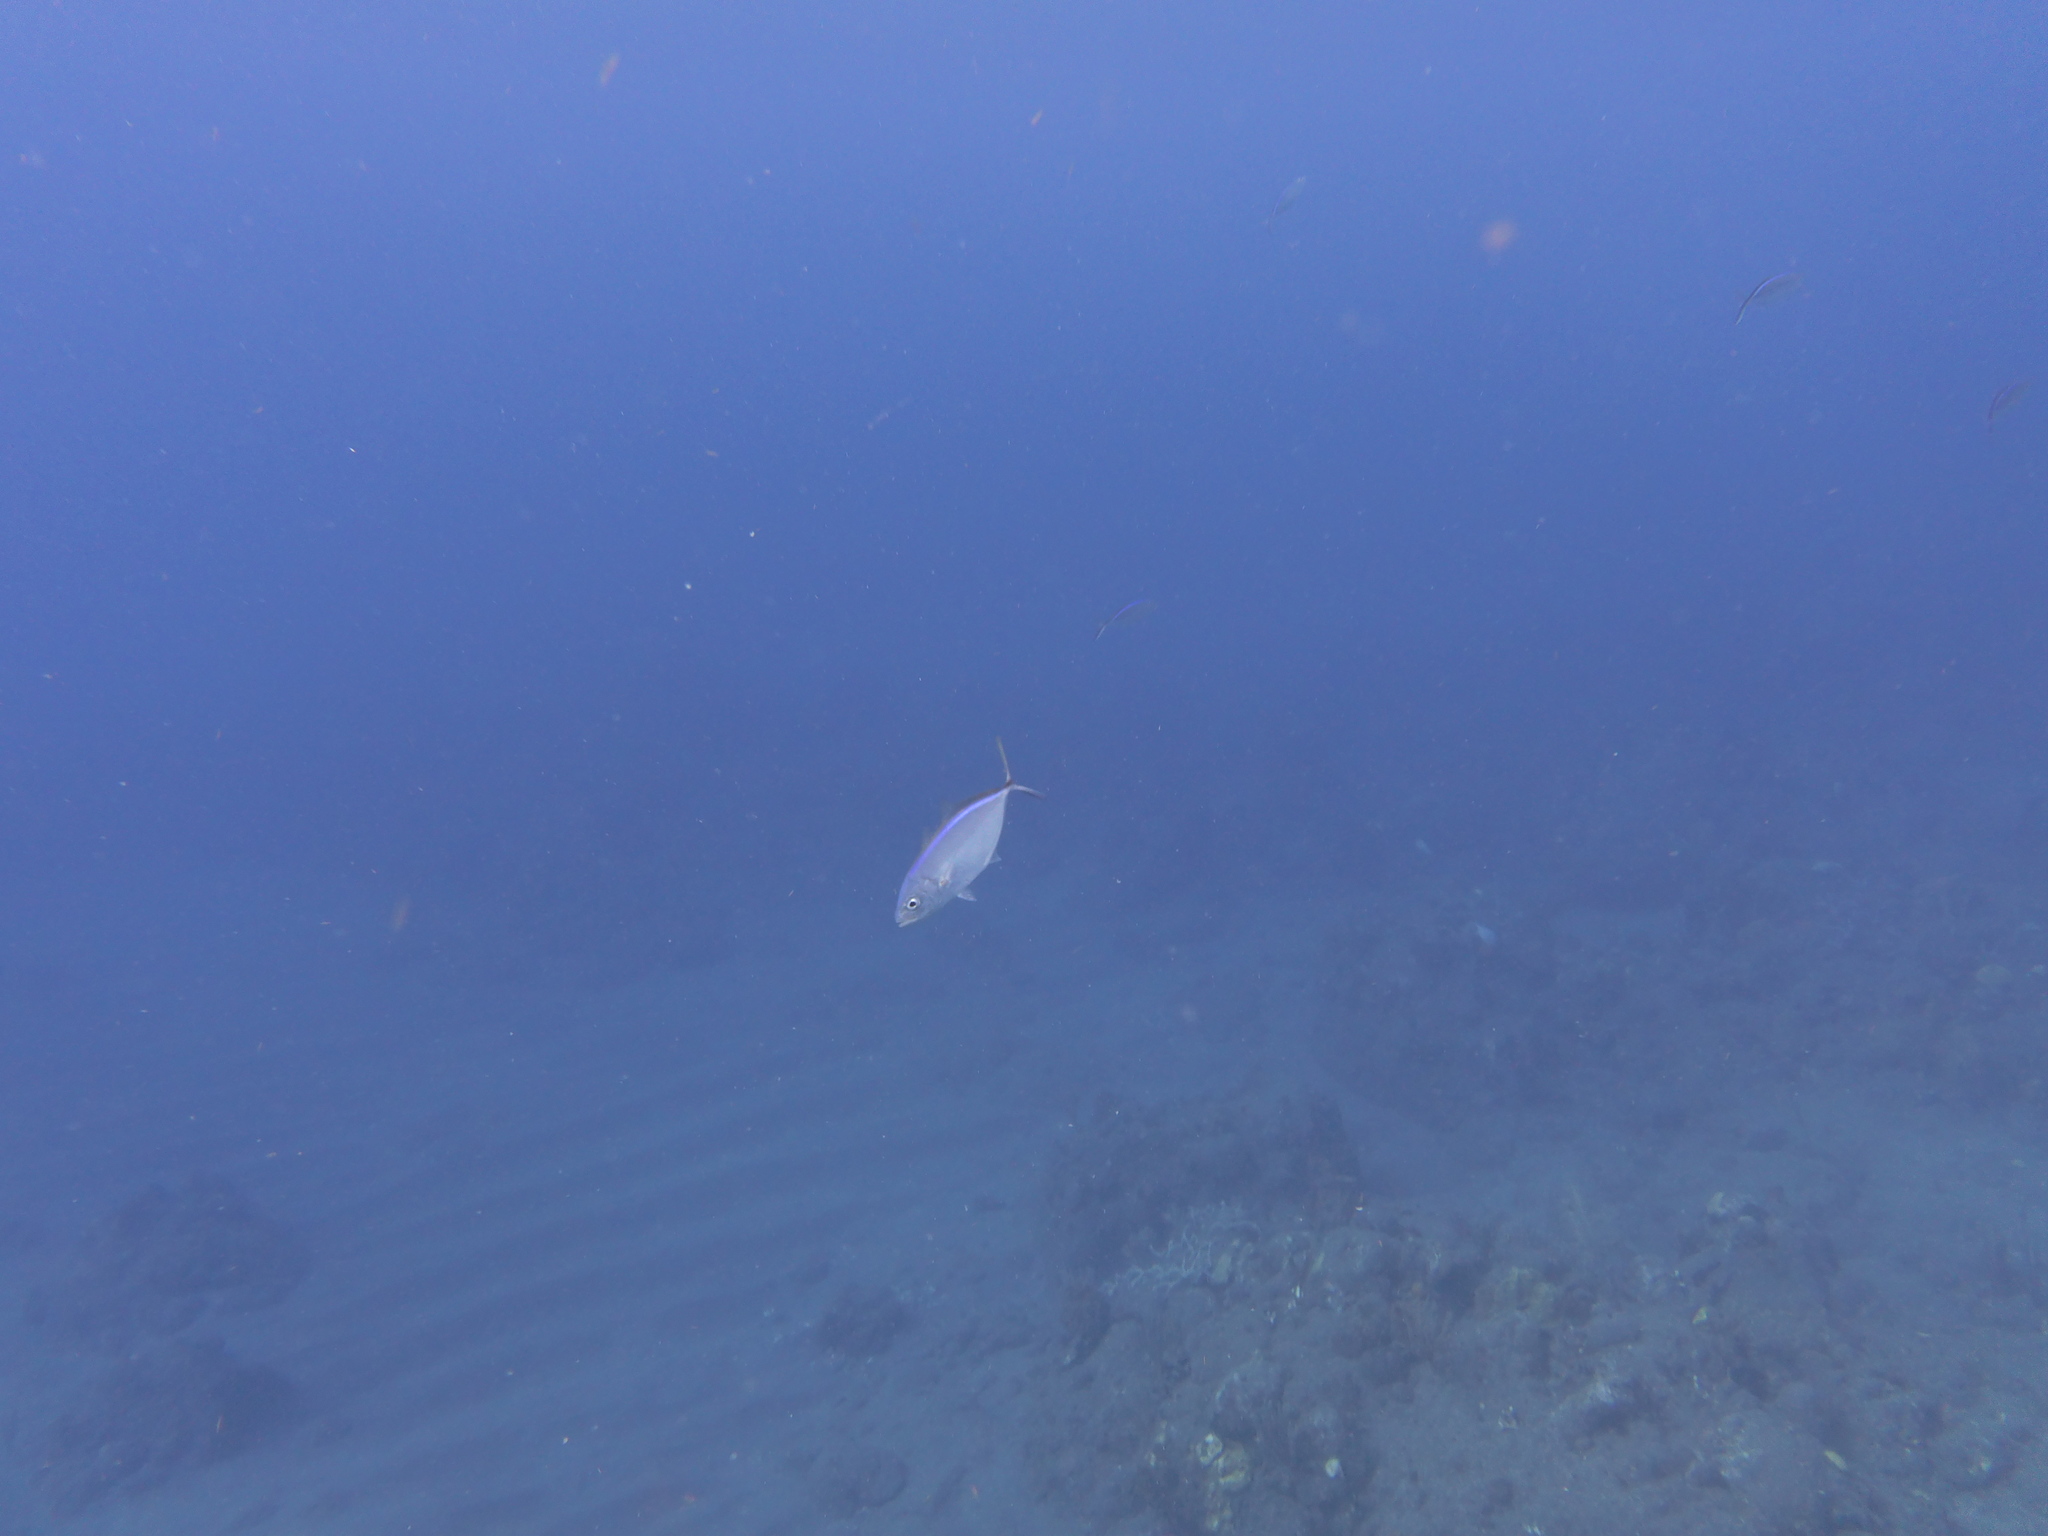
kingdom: Animalia
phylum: Chordata
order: Perciformes
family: Carangidae
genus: Caranx
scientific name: Caranx ruber
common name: Bar jack
